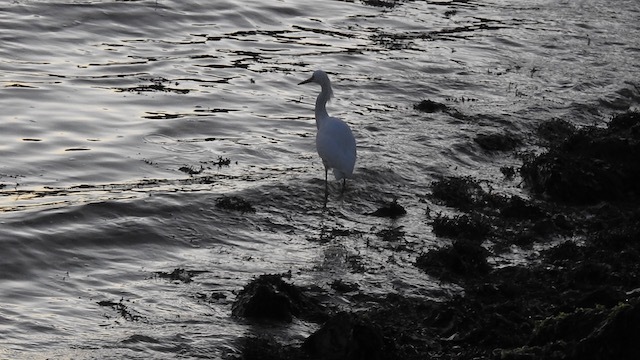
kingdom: Animalia
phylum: Chordata
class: Aves
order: Pelecaniformes
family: Ardeidae
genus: Egretta
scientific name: Egretta thula
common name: Snowy egret
